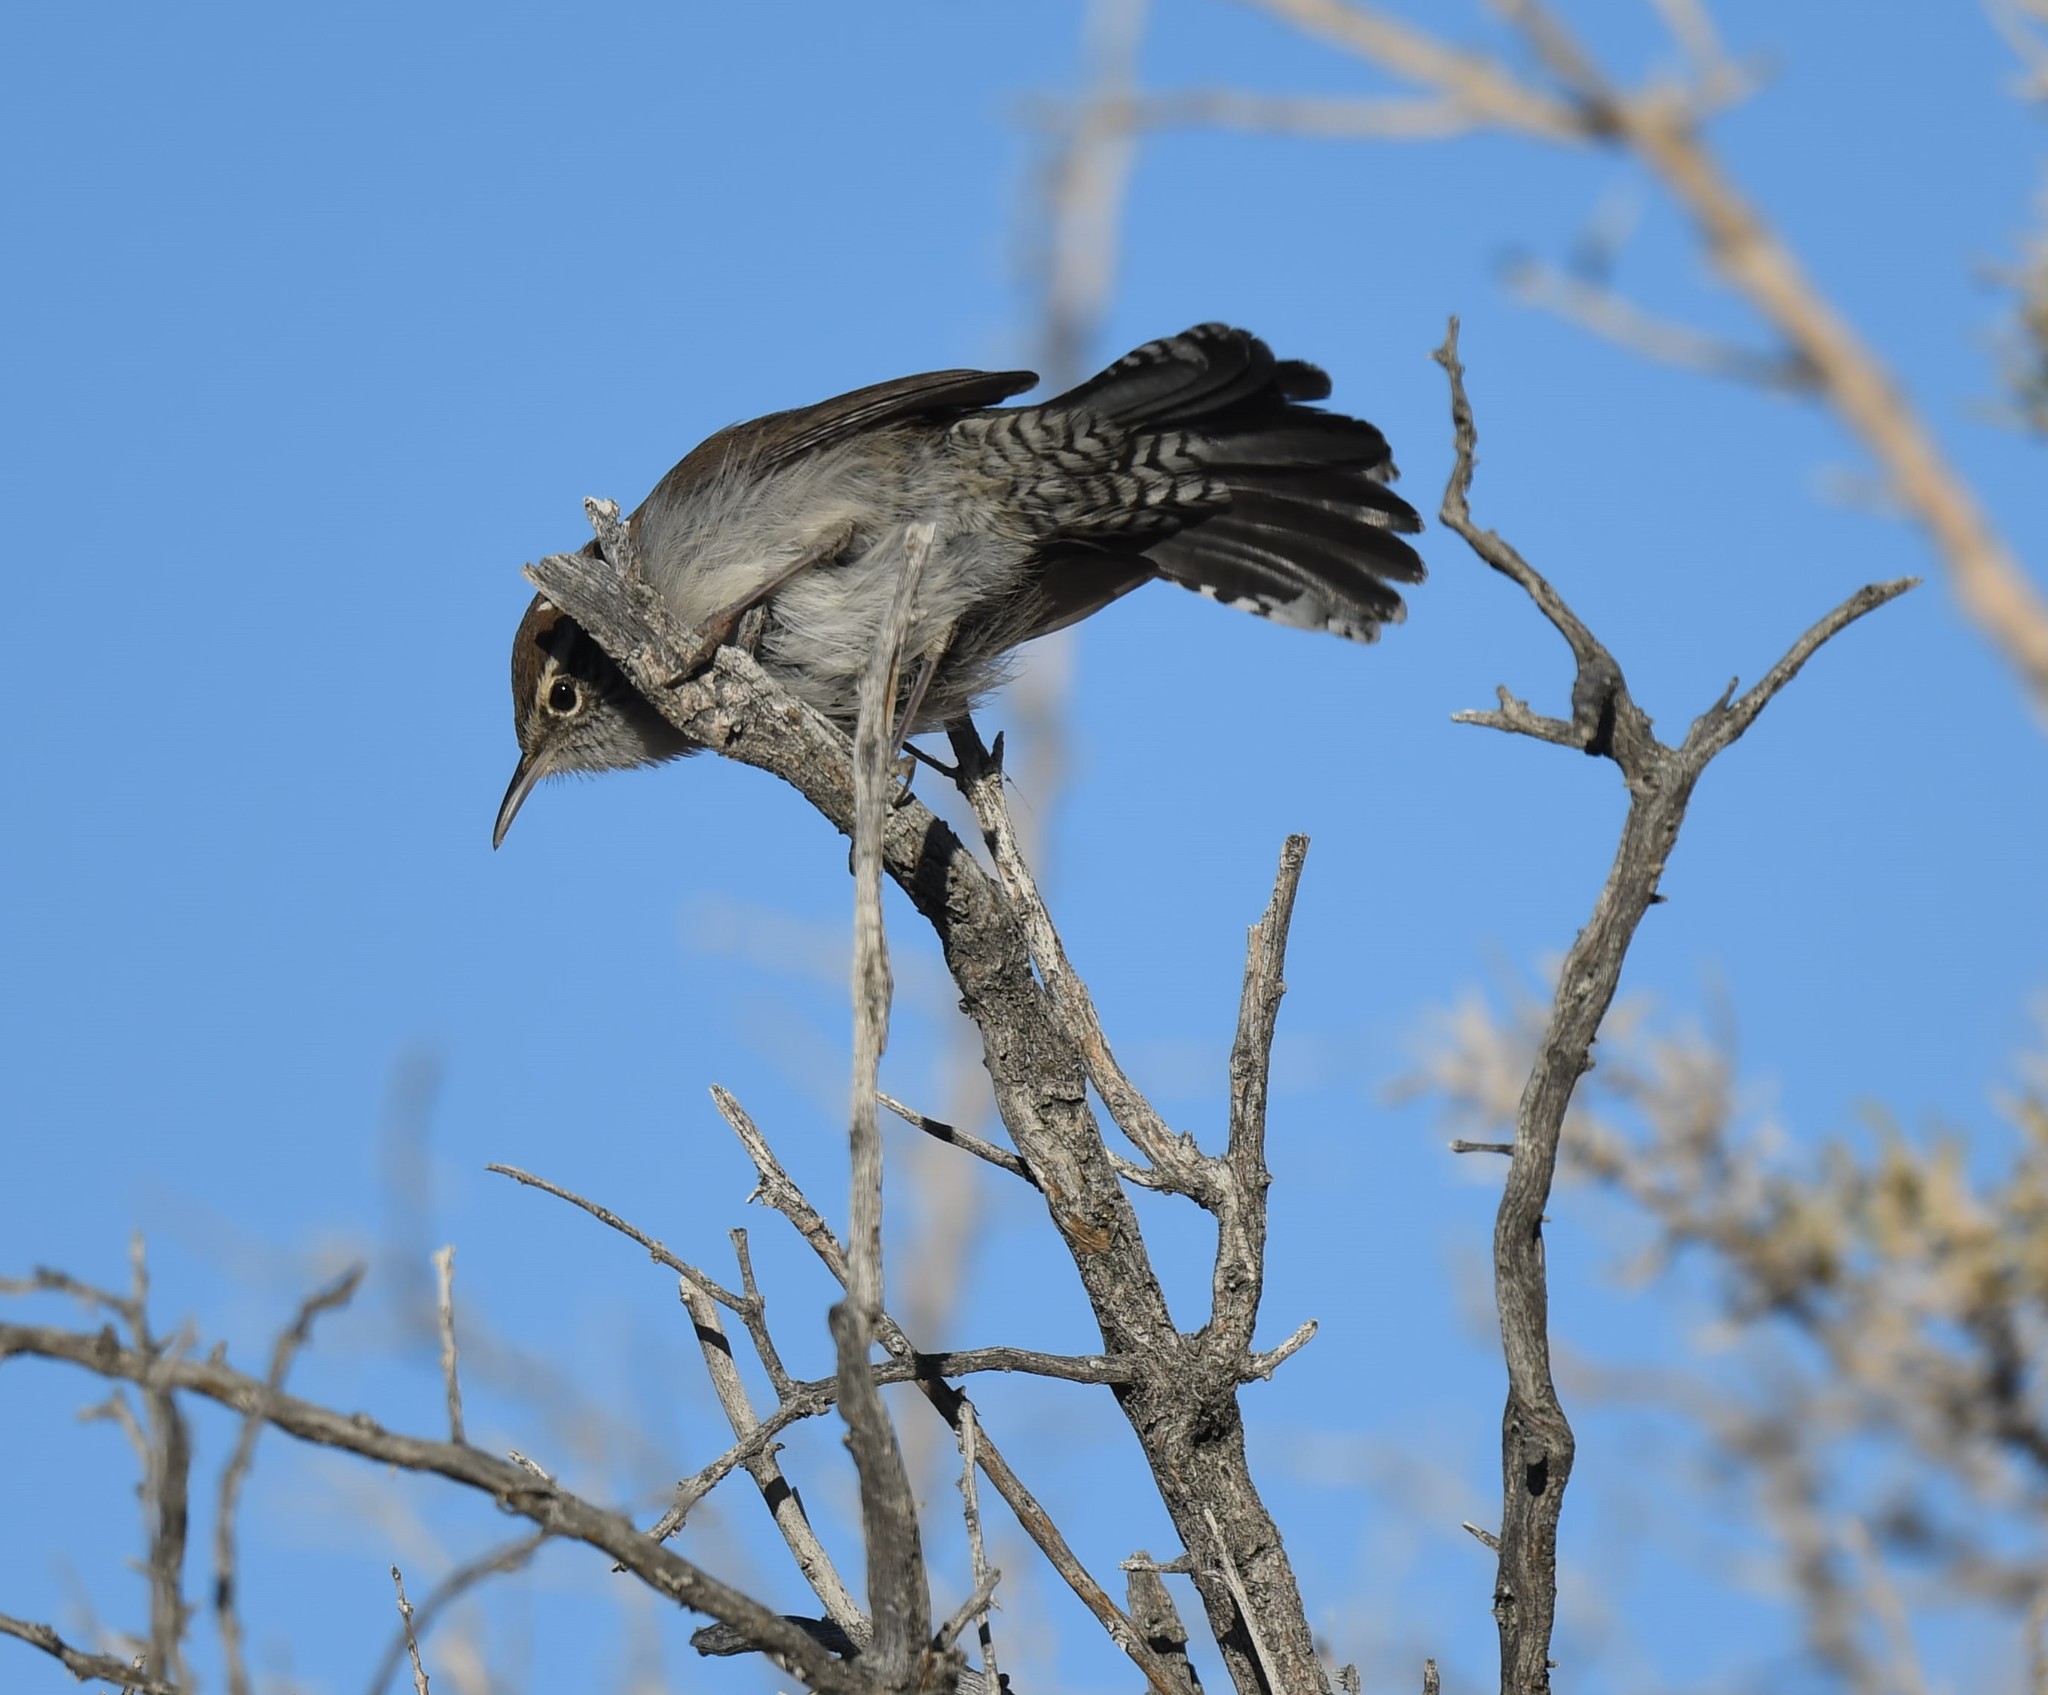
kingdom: Animalia
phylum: Chordata
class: Aves
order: Passeriformes
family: Troglodytidae
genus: Thryomanes
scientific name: Thryomanes bewickii
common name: Bewick's wren
